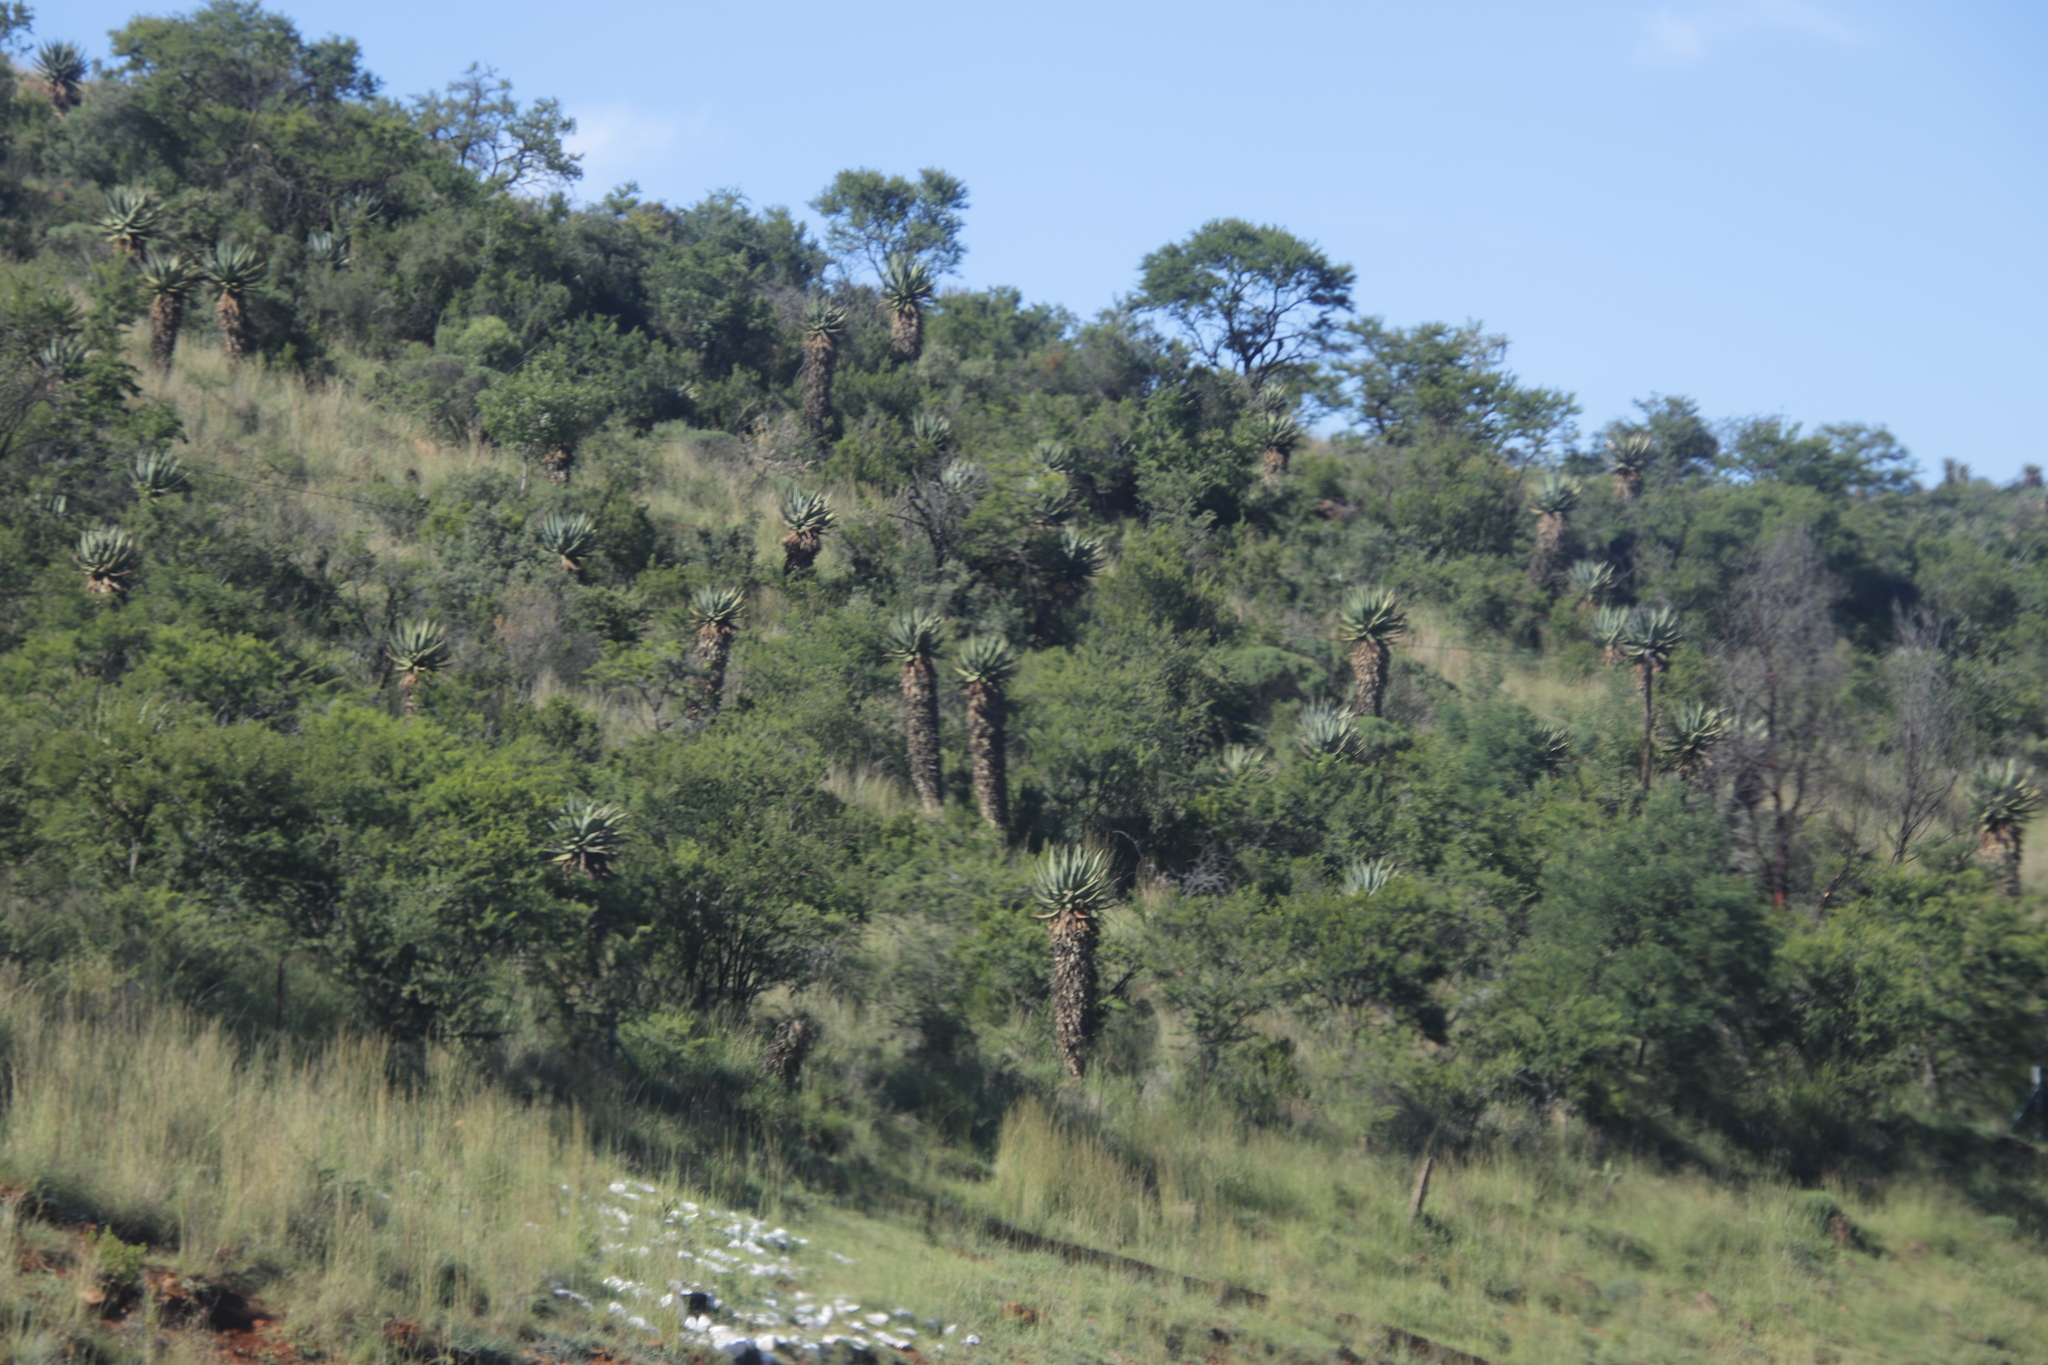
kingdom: Plantae
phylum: Tracheophyta
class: Liliopsida
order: Asparagales
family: Asphodelaceae
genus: Aloe
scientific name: Aloe ferox
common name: Bitter aloe
